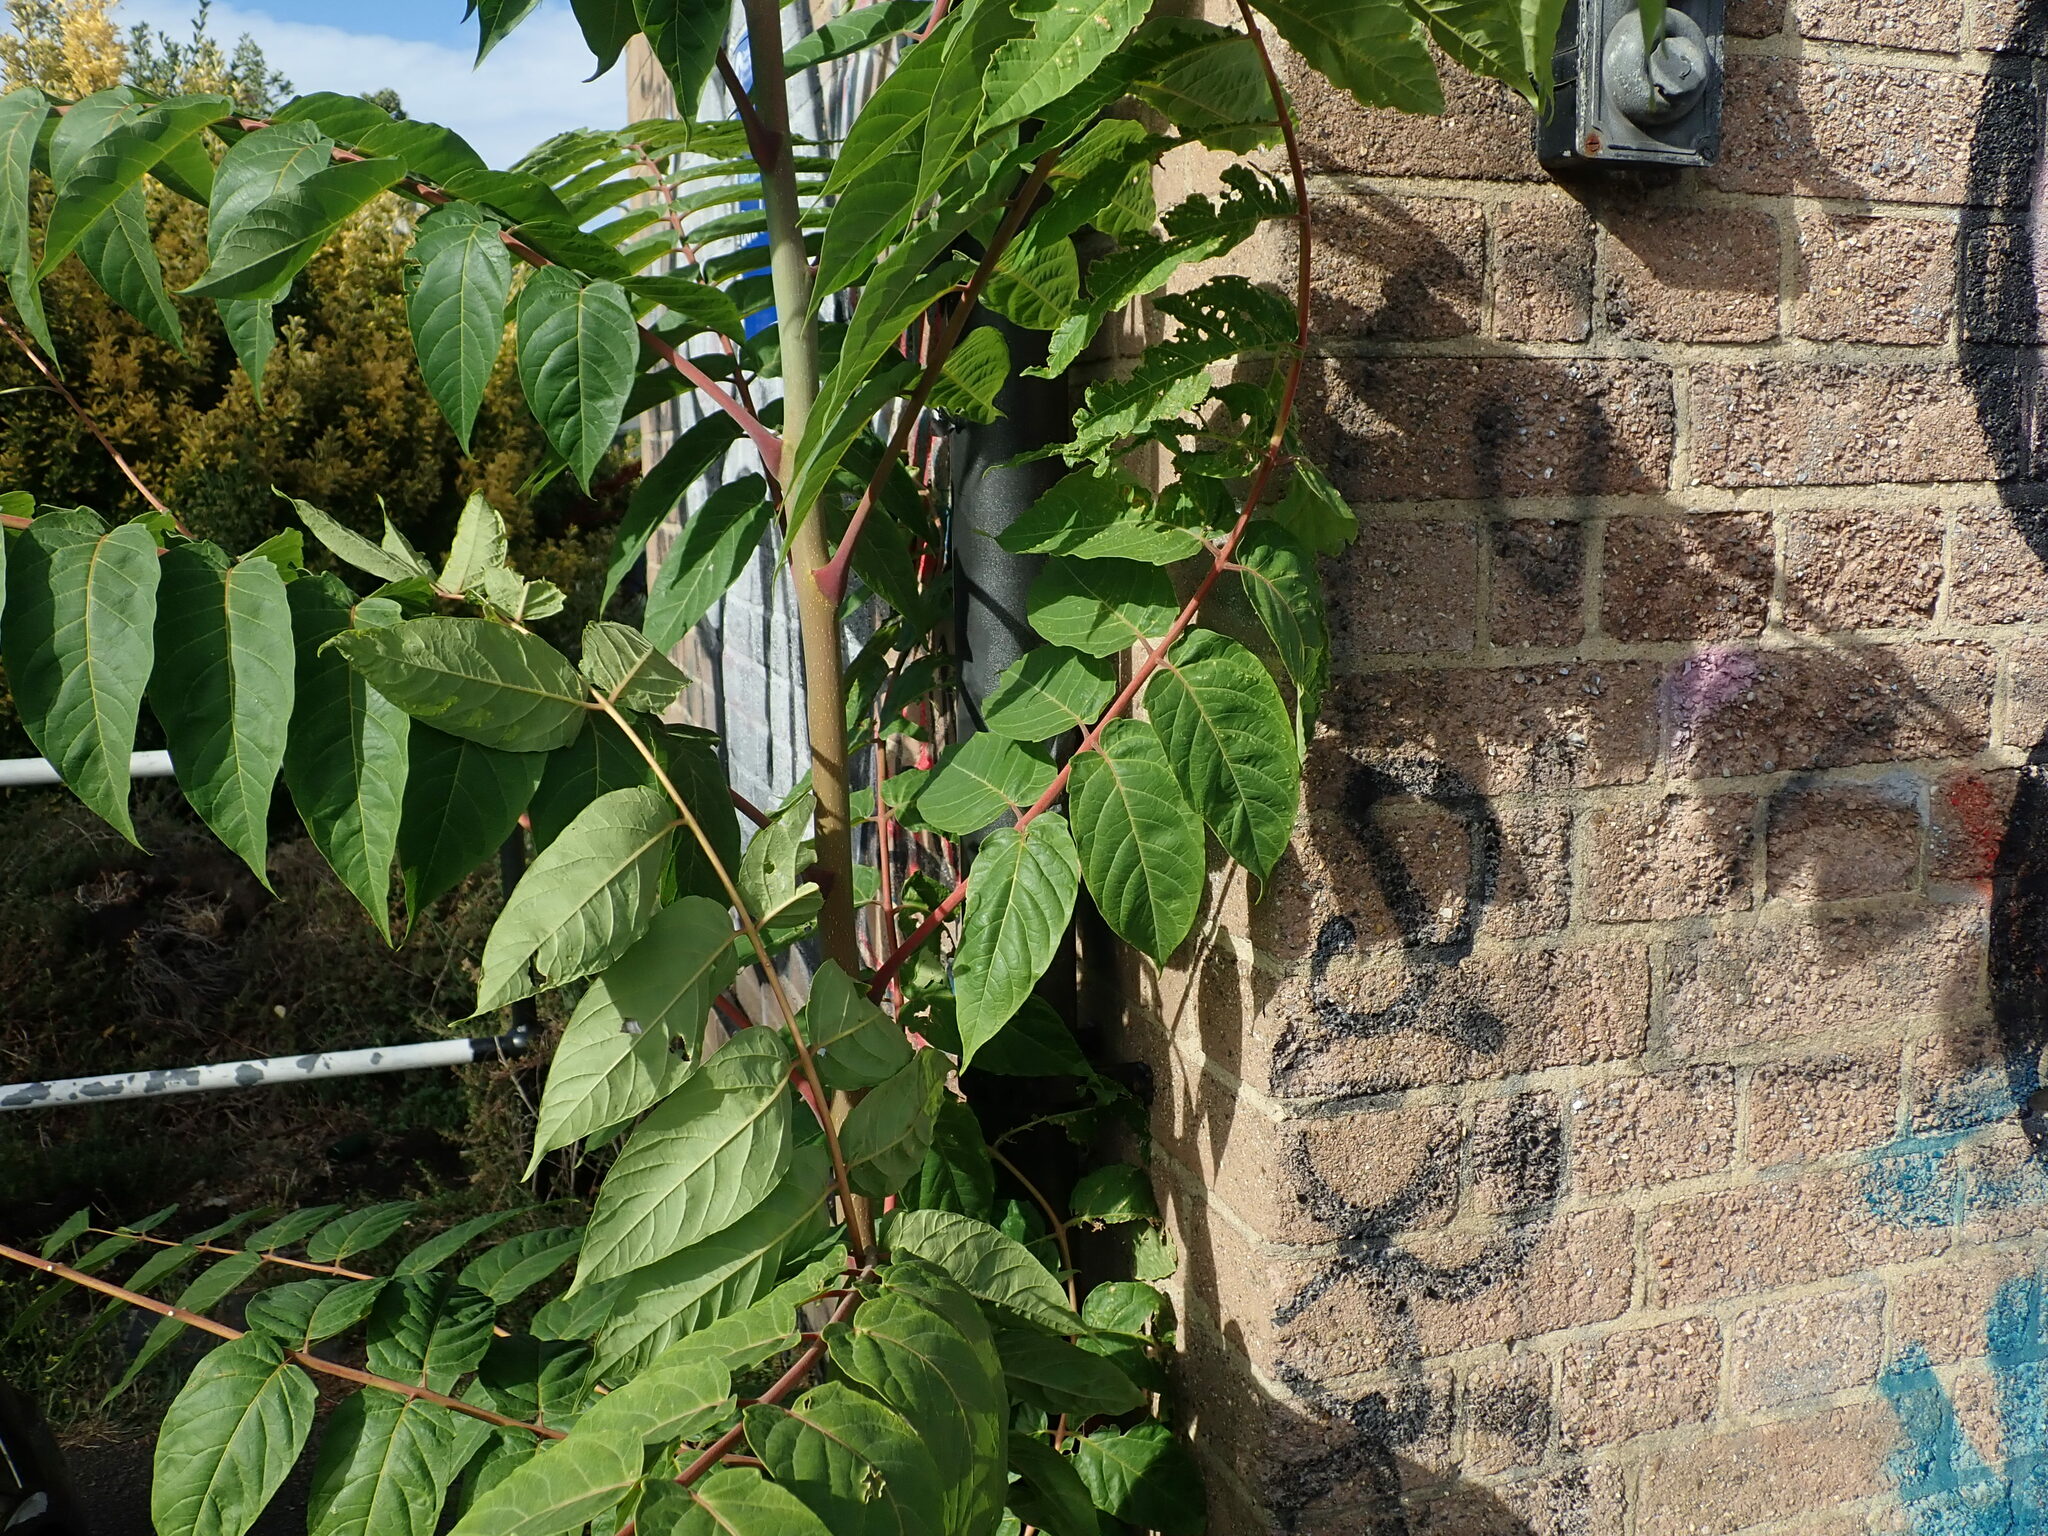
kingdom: Plantae
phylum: Tracheophyta
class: Magnoliopsida
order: Sapindales
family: Simaroubaceae
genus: Ailanthus
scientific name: Ailanthus altissima
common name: Tree-of-heaven
